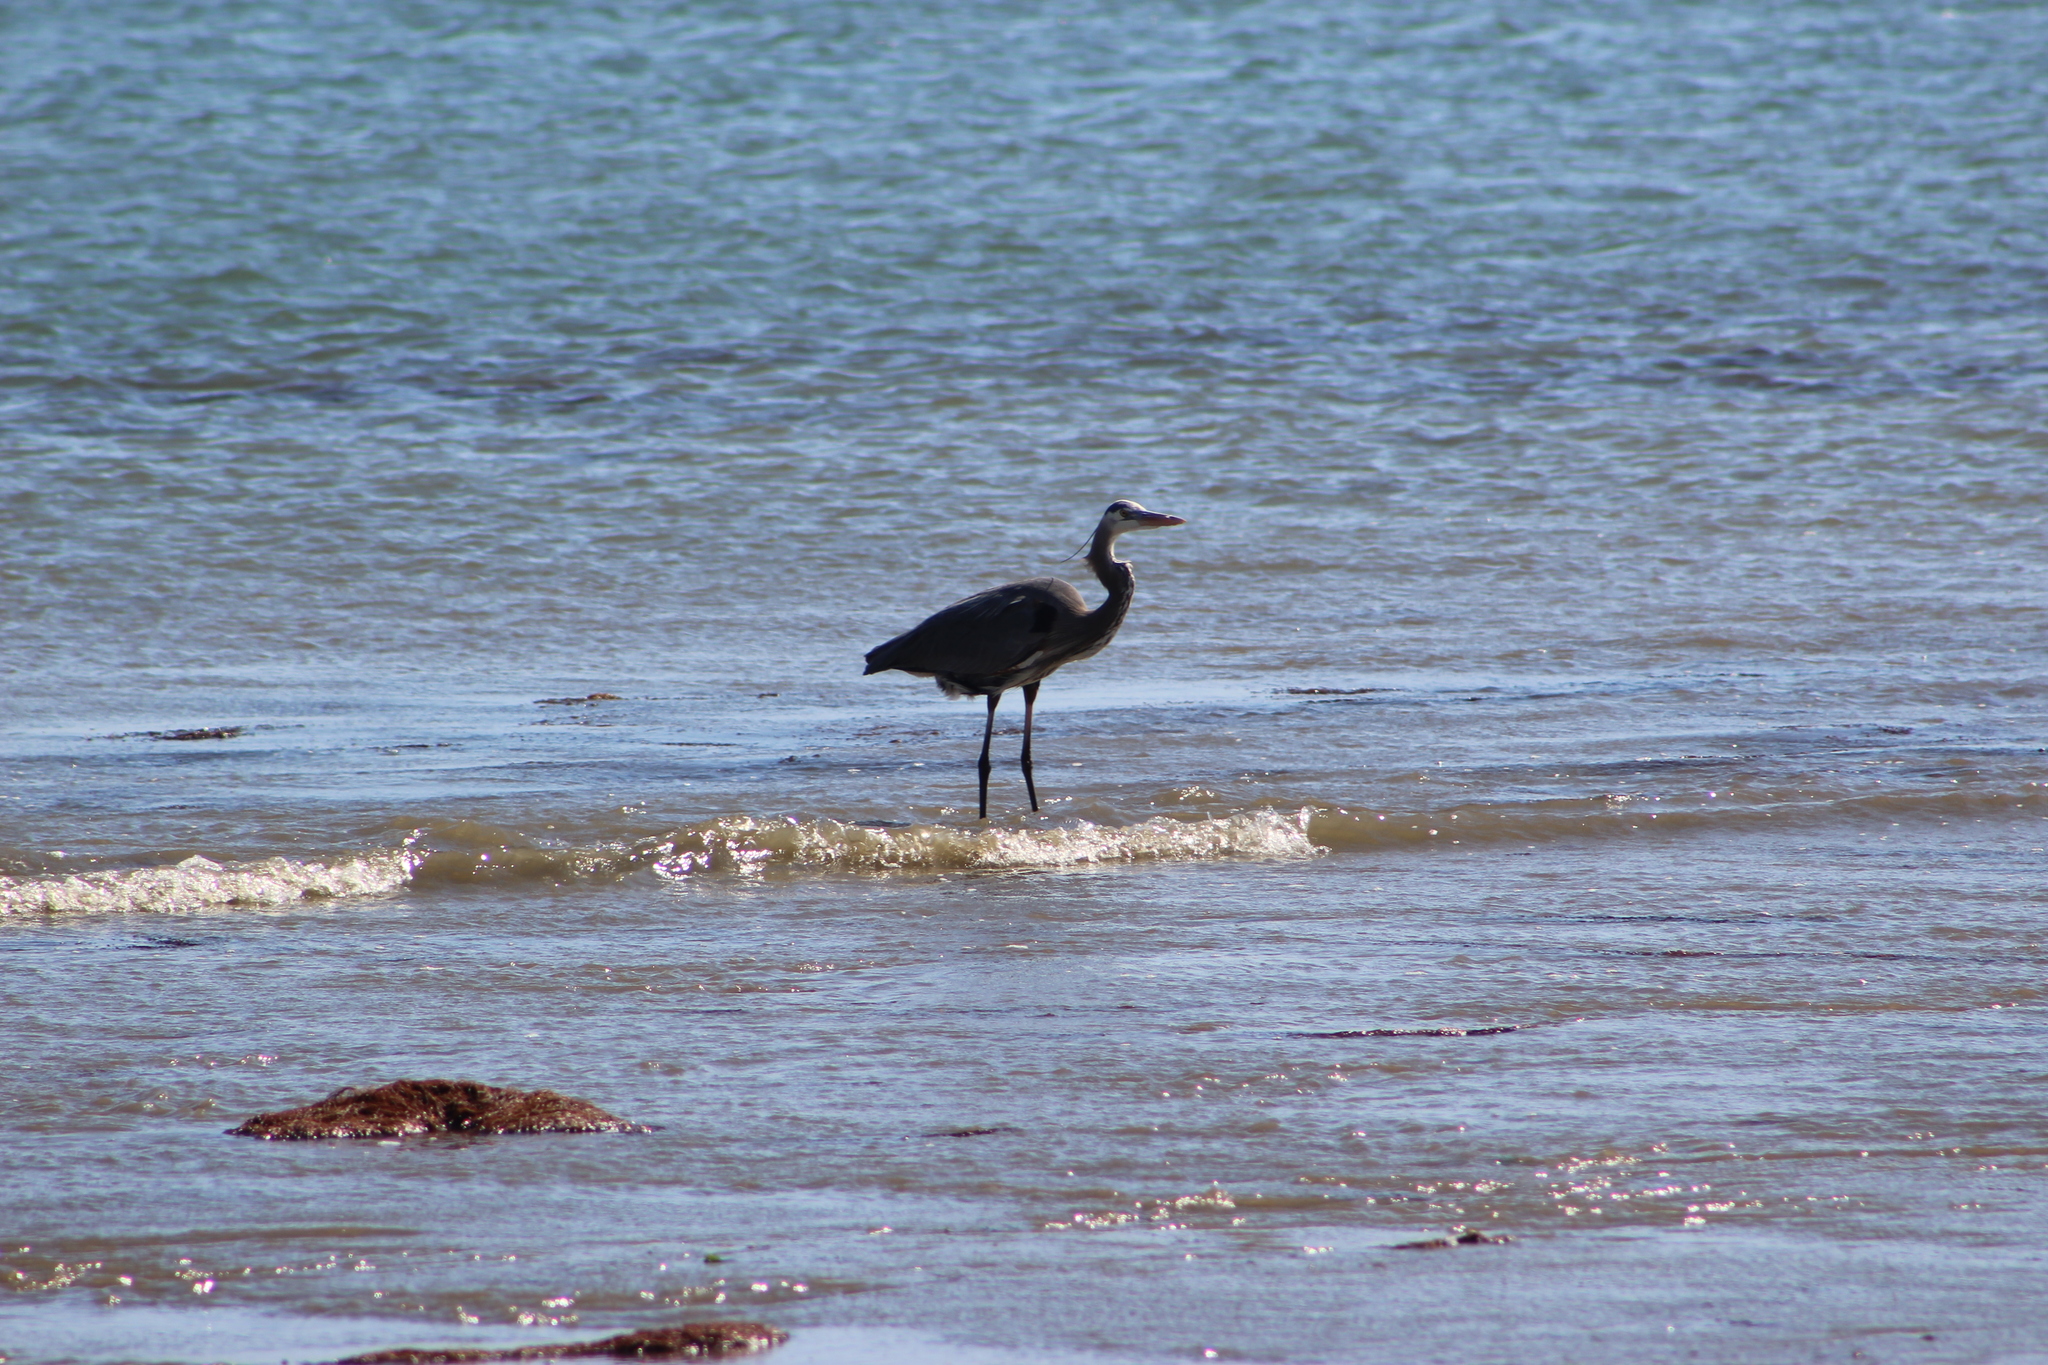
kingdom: Animalia
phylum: Chordata
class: Aves
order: Pelecaniformes
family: Ardeidae
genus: Ardea
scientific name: Ardea herodias
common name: Great blue heron
